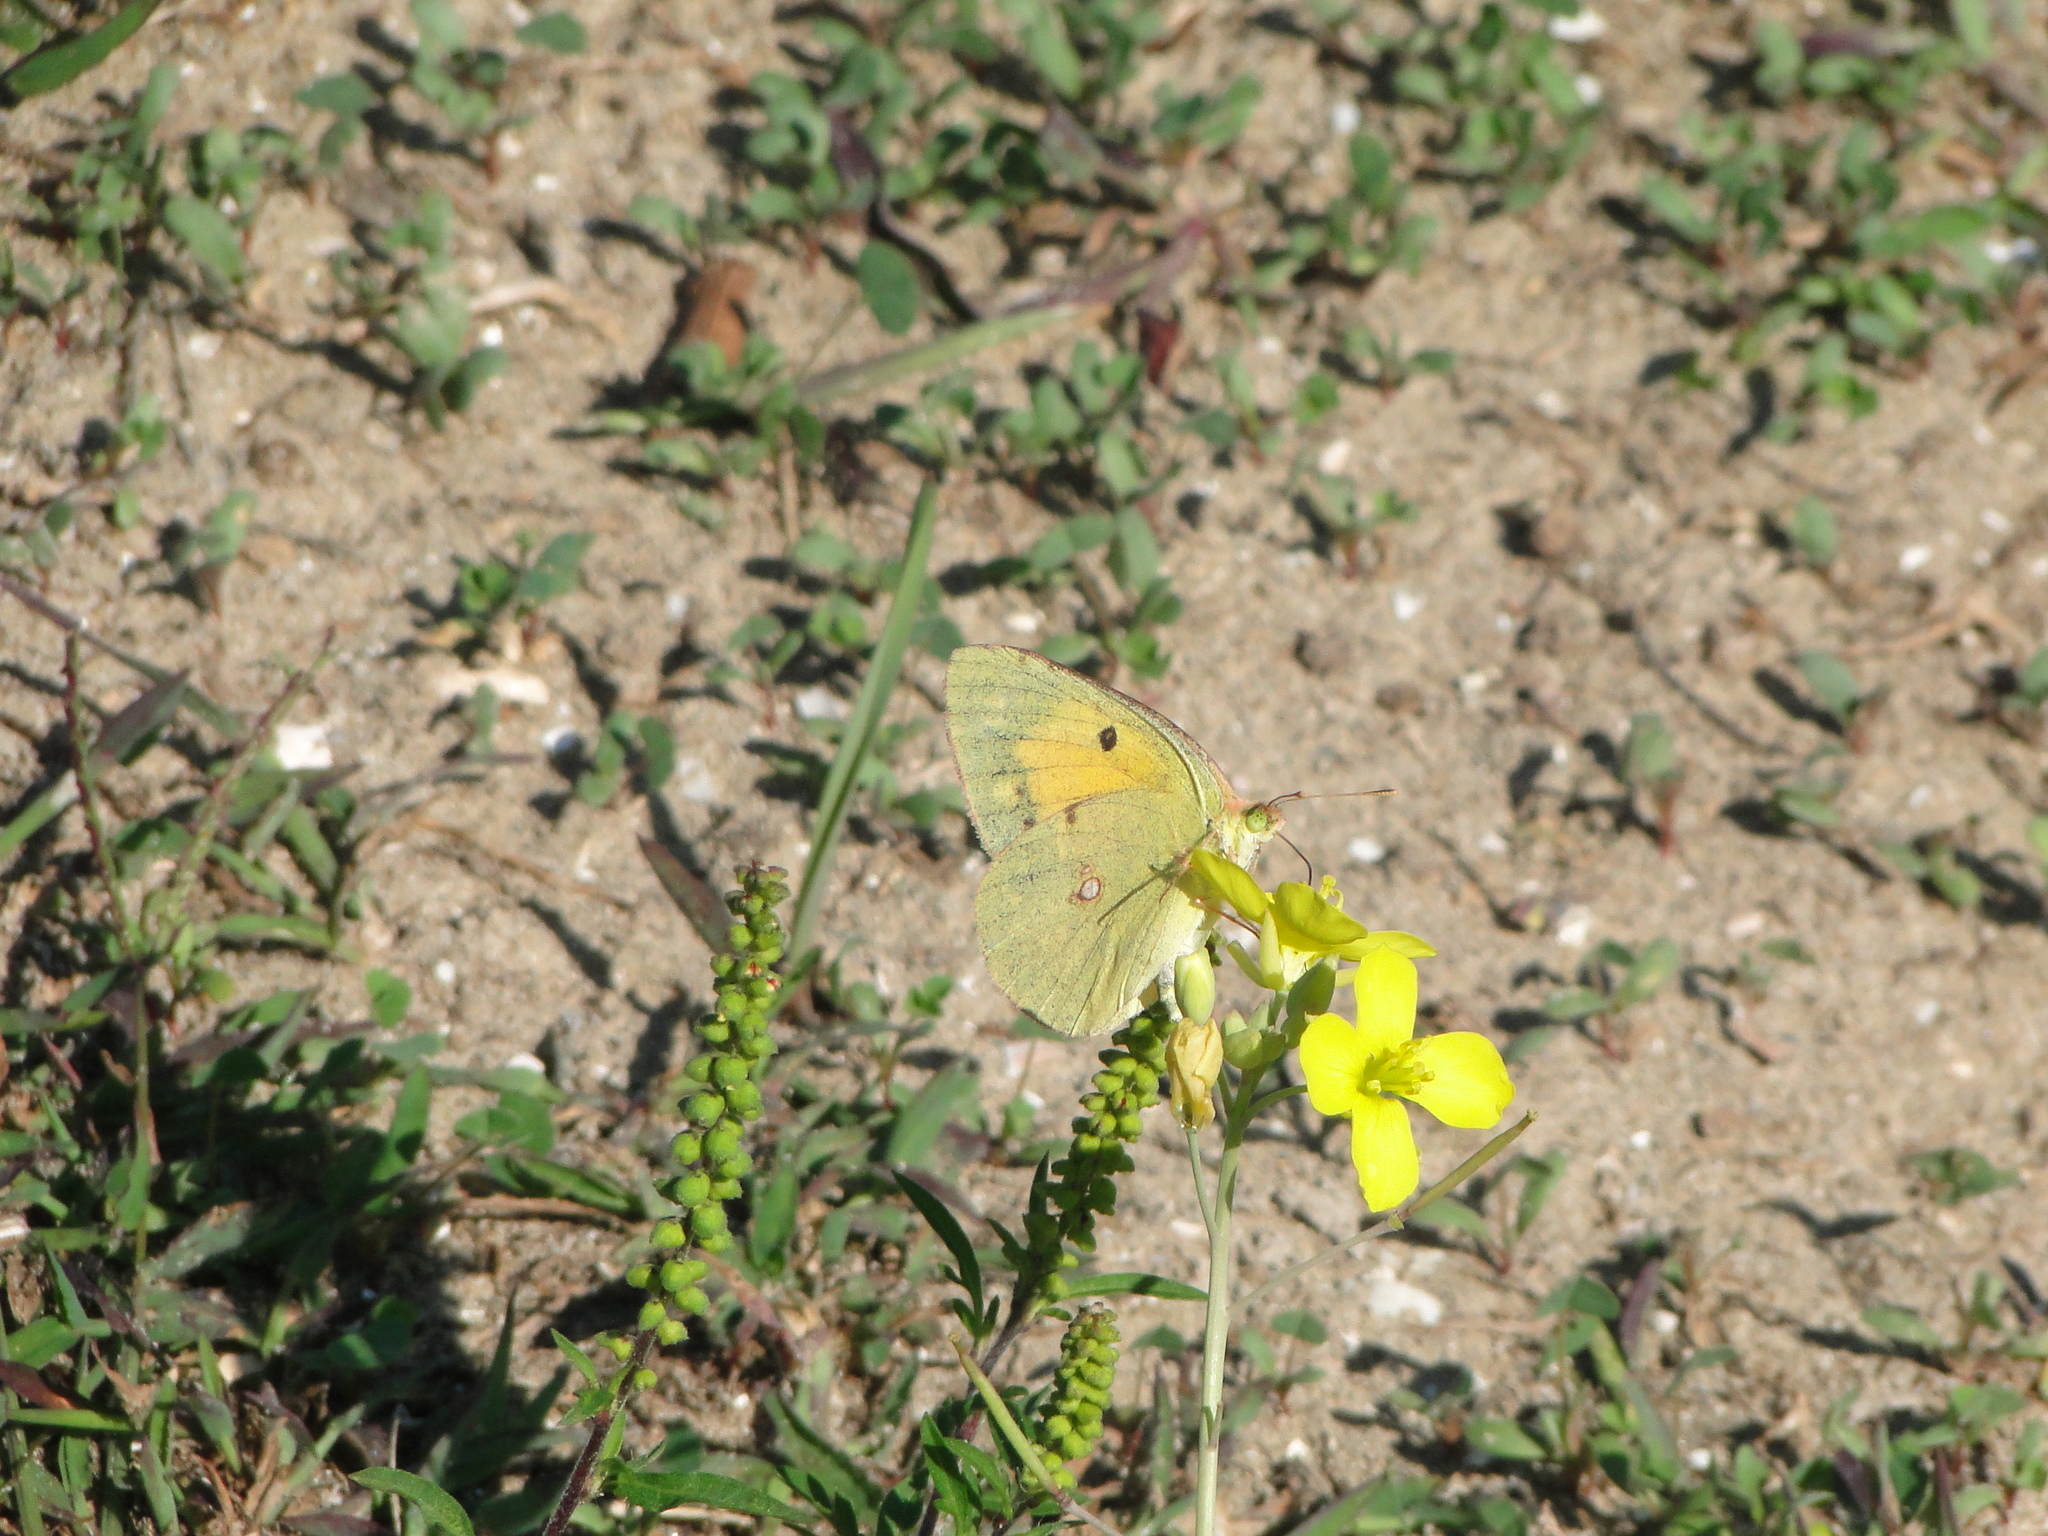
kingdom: Animalia
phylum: Arthropoda
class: Insecta
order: Lepidoptera
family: Pieridae
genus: Colias
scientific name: Colias croceus
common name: Clouded yellow
